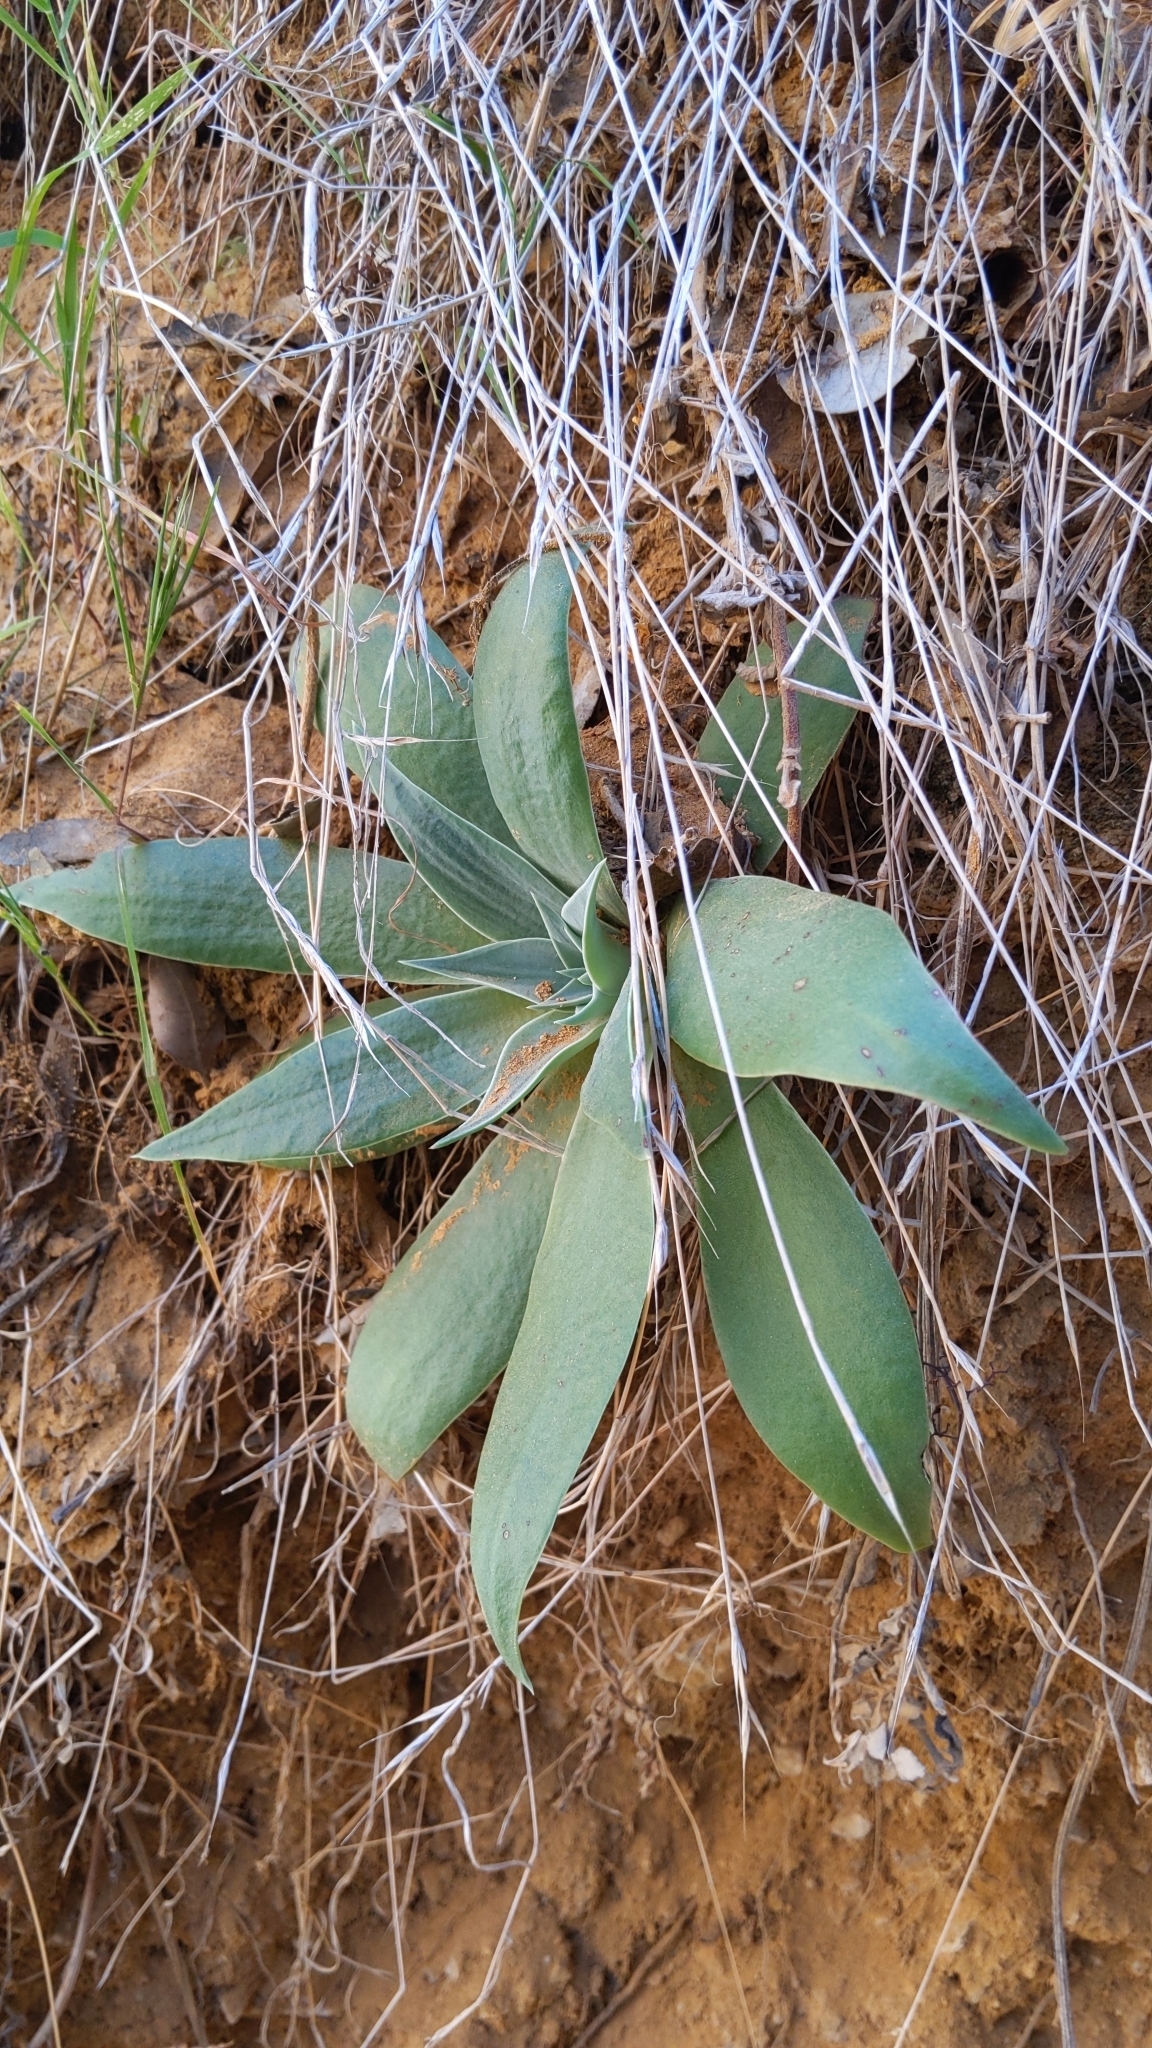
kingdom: Plantae
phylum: Tracheophyta
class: Magnoliopsida
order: Saxifragales
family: Crassulaceae
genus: Dudleya
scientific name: Dudleya lanceolata
